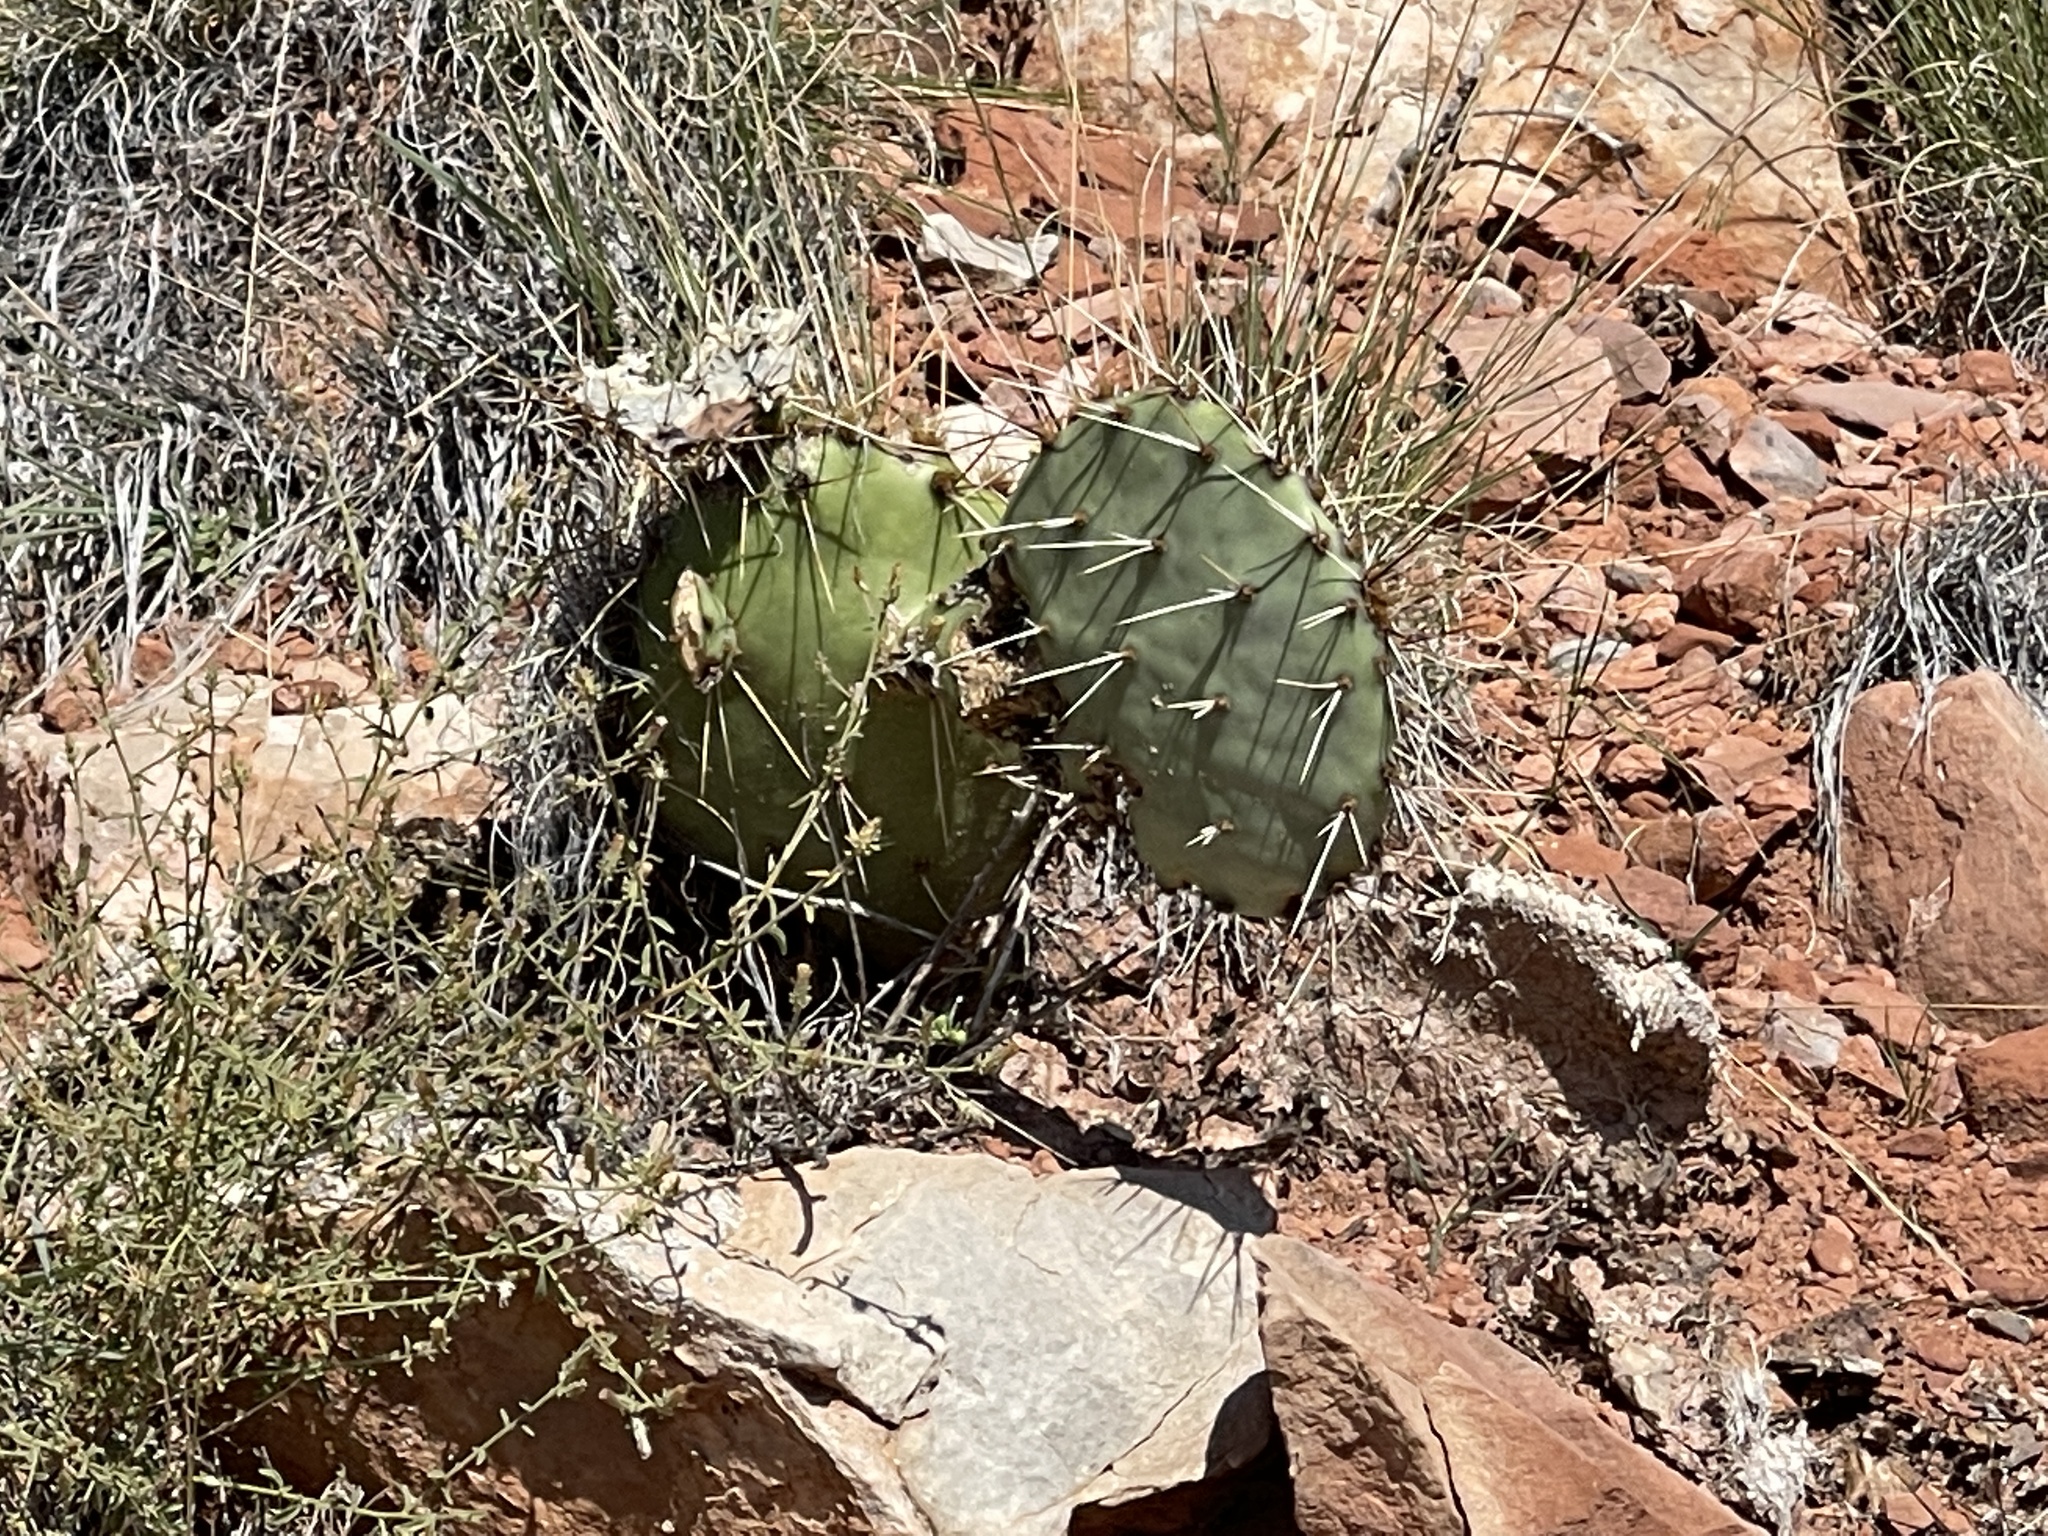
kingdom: Plantae
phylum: Tracheophyta
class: Magnoliopsida
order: Caryophyllales
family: Cactaceae
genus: Opuntia
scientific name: Opuntia engelmannii
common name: Cactus-apple
